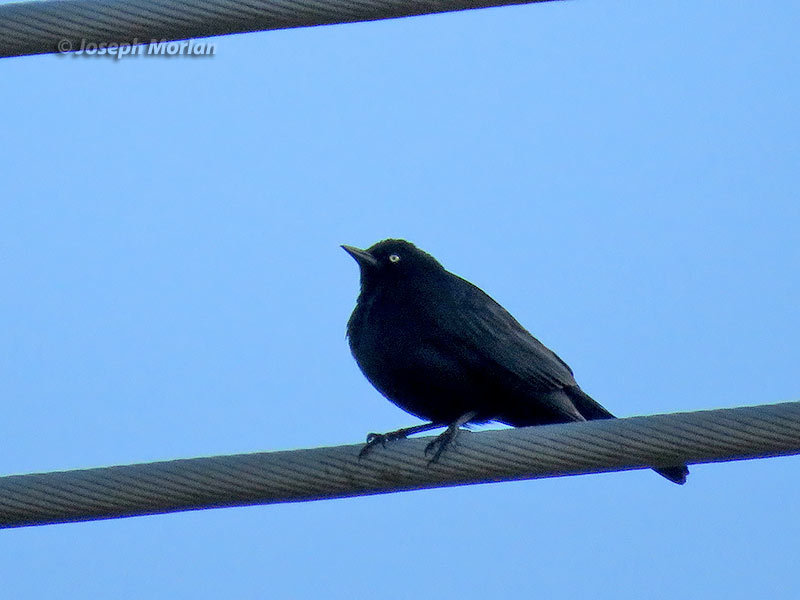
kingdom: Animalia
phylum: Chordata
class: Aves
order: Passeriformes
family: Icteridae
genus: Euphagus
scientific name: Euphagus cyanocephalus
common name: Brewer's blackbird
